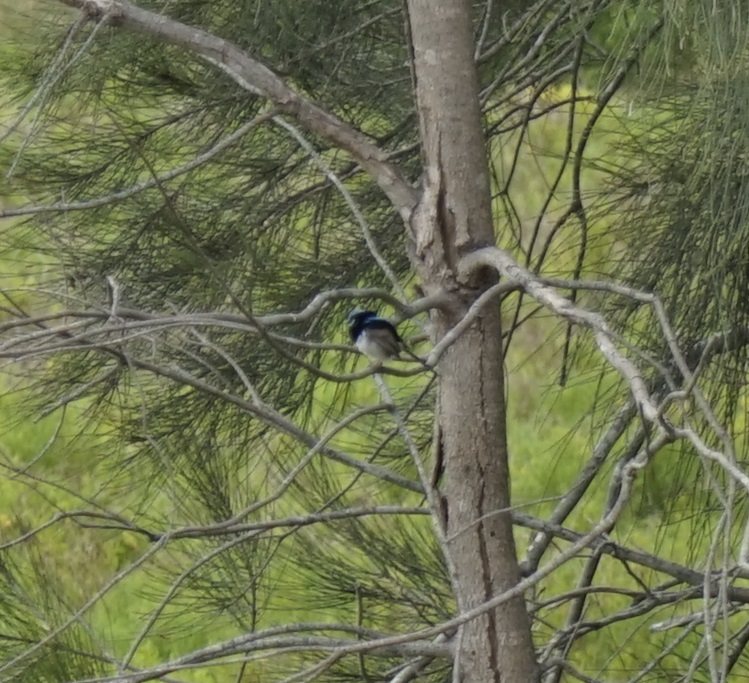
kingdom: Animalia
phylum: Chordata
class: Aves
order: Passeriformes
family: Maluridae
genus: Malurus
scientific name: Malurus cyaneus
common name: Superb fairywren
